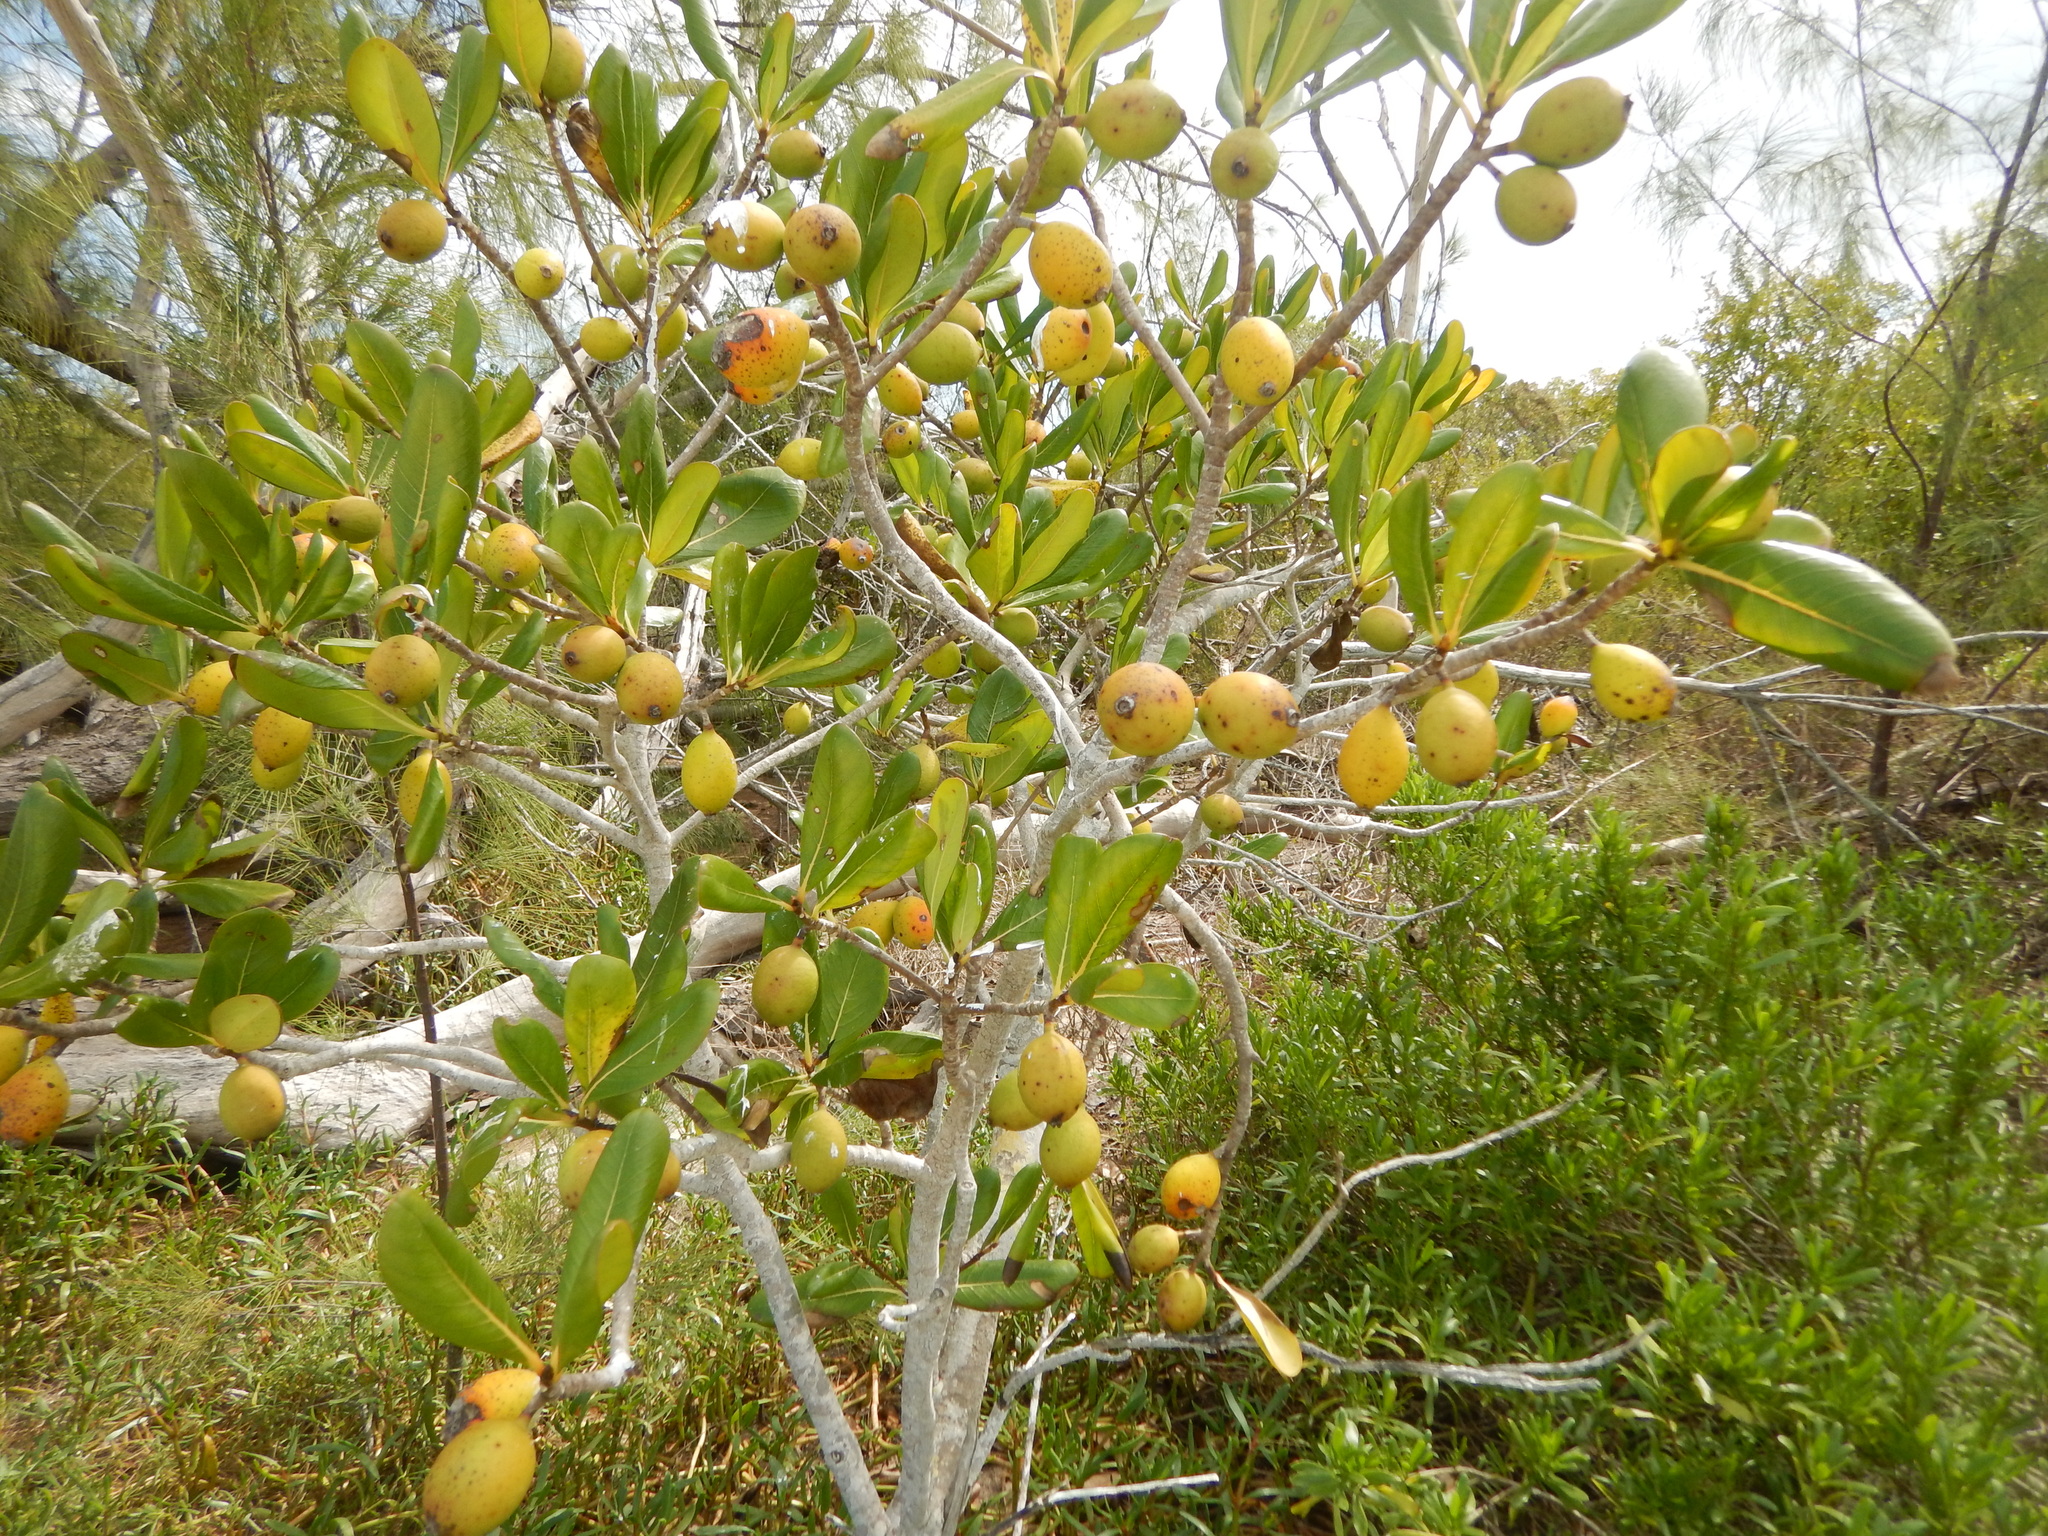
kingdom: Plantae
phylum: Tracheophyta
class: Magnoliopsida
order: Gentianales
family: Rubiaceae
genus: Casasia
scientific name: Casasia clusiifolia
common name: Seven-year apple
